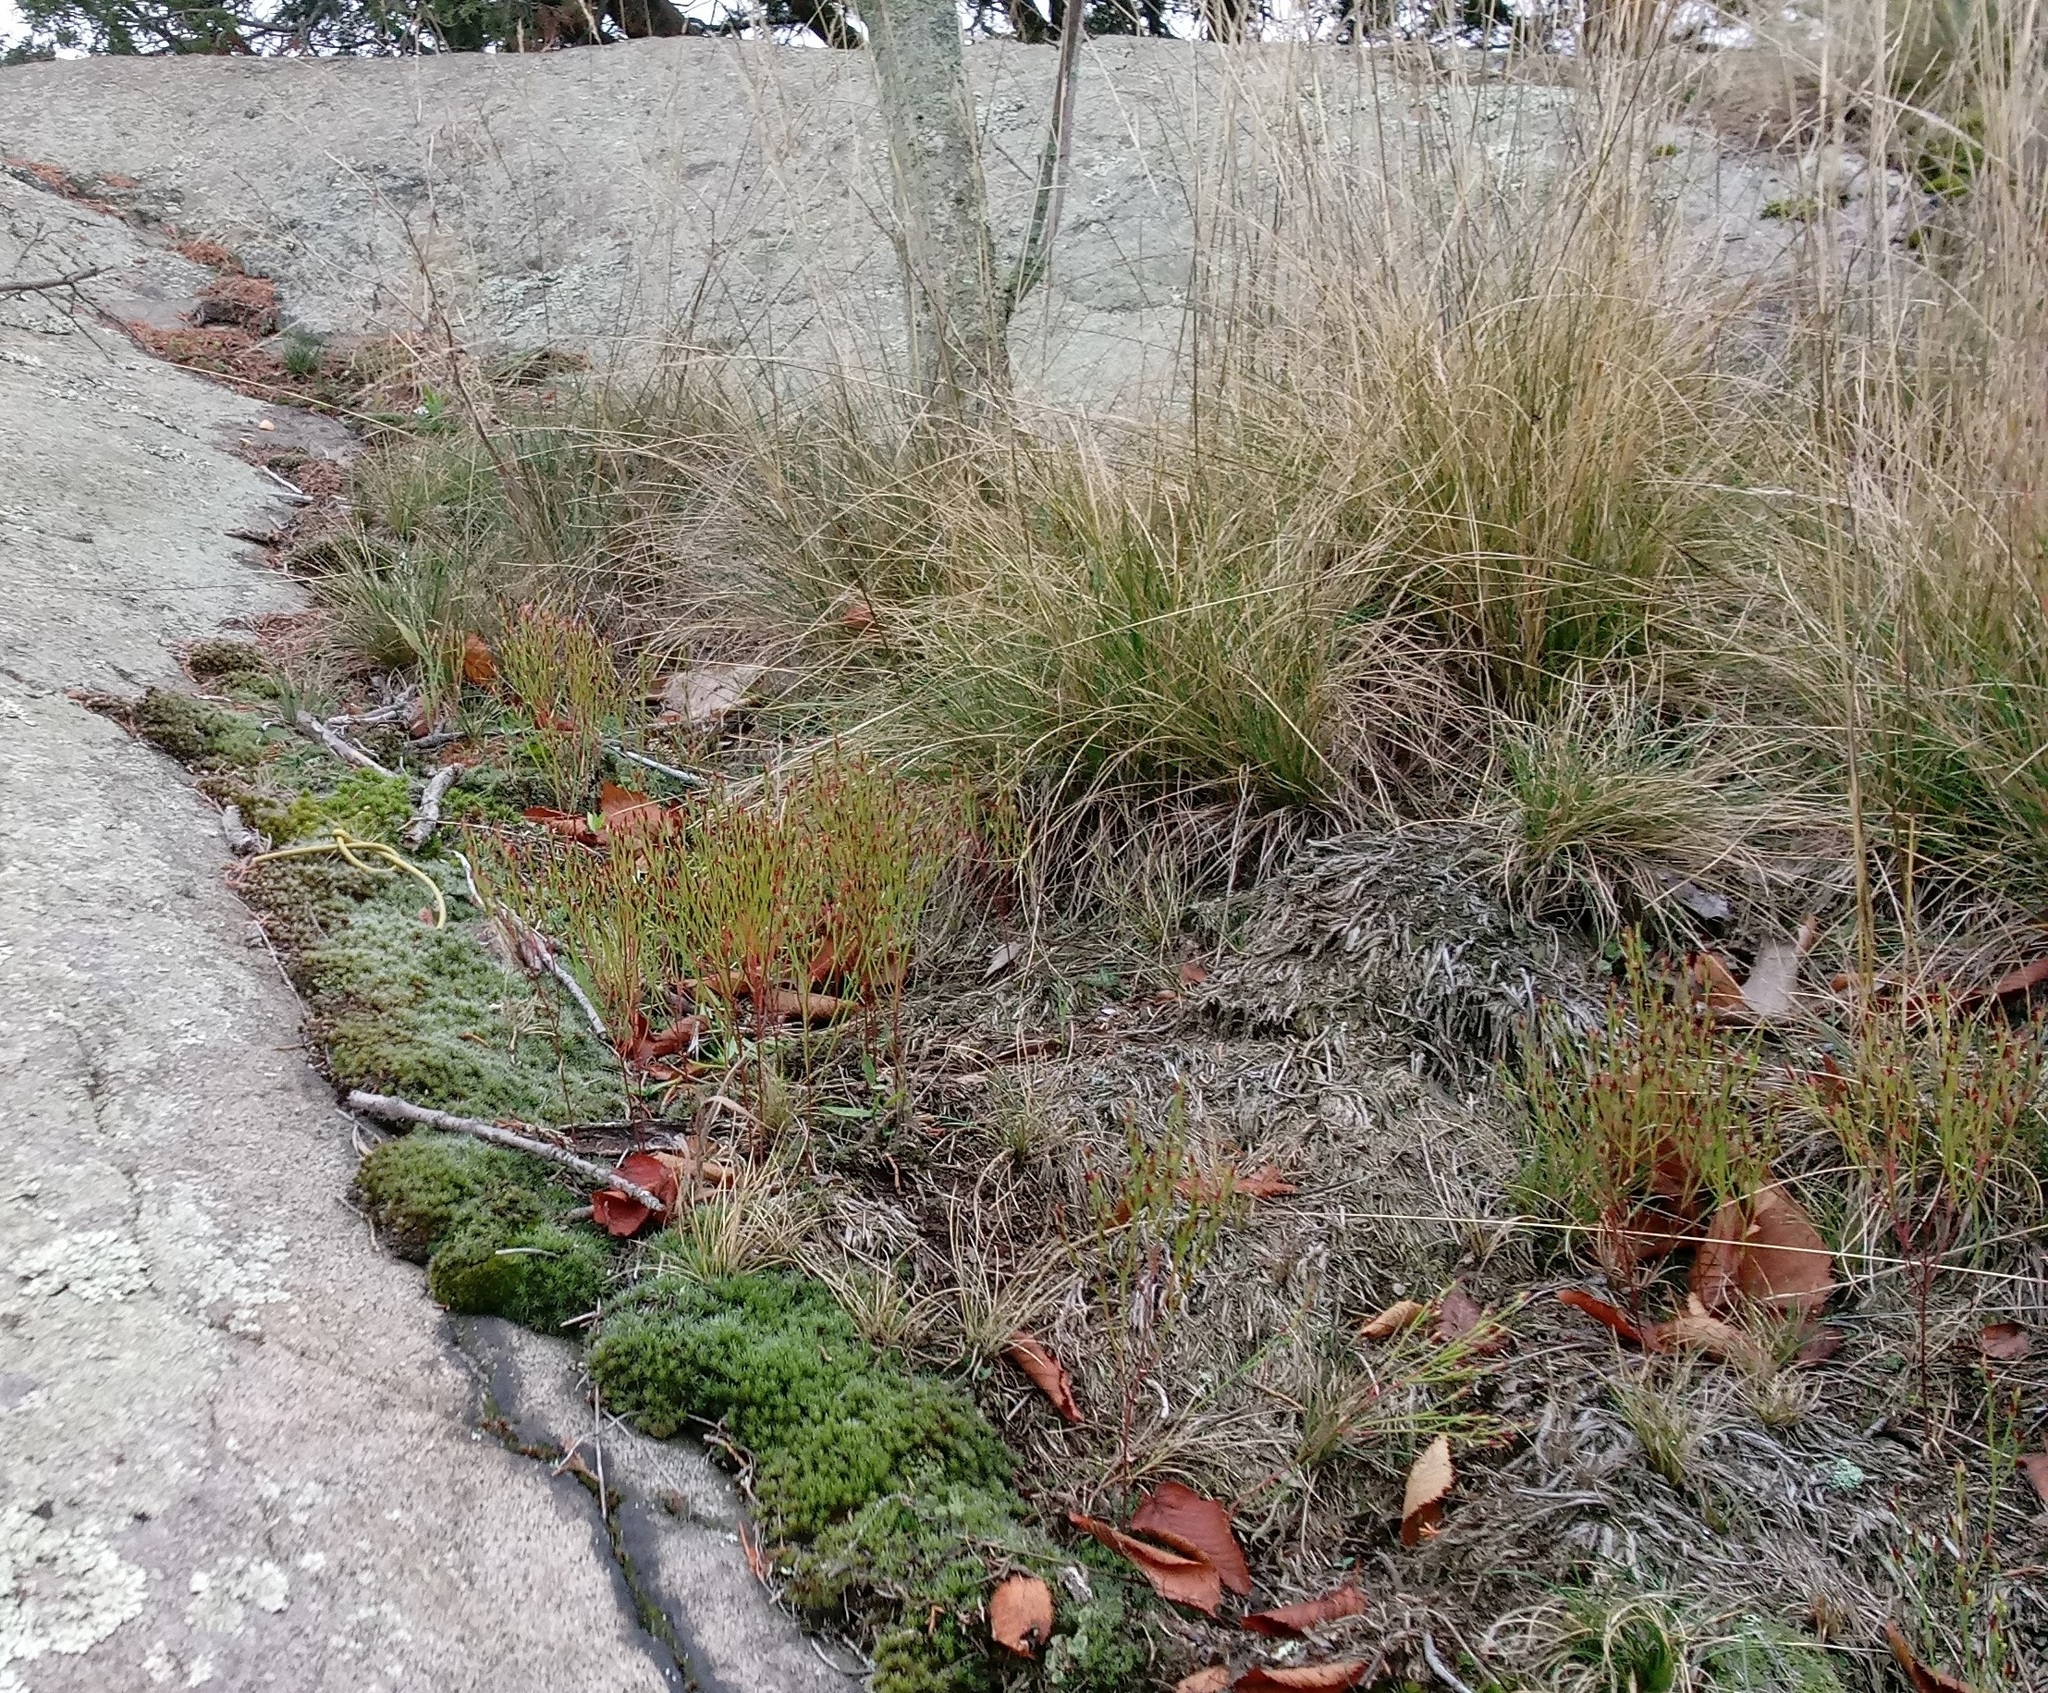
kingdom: Plantae
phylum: Tracheophyta
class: Magnoliopsida
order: Malpighiales
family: Hypericaceae
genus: Hypericum
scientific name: Hypericum gentianoides
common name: Gentian-leaved st. john's-wort
